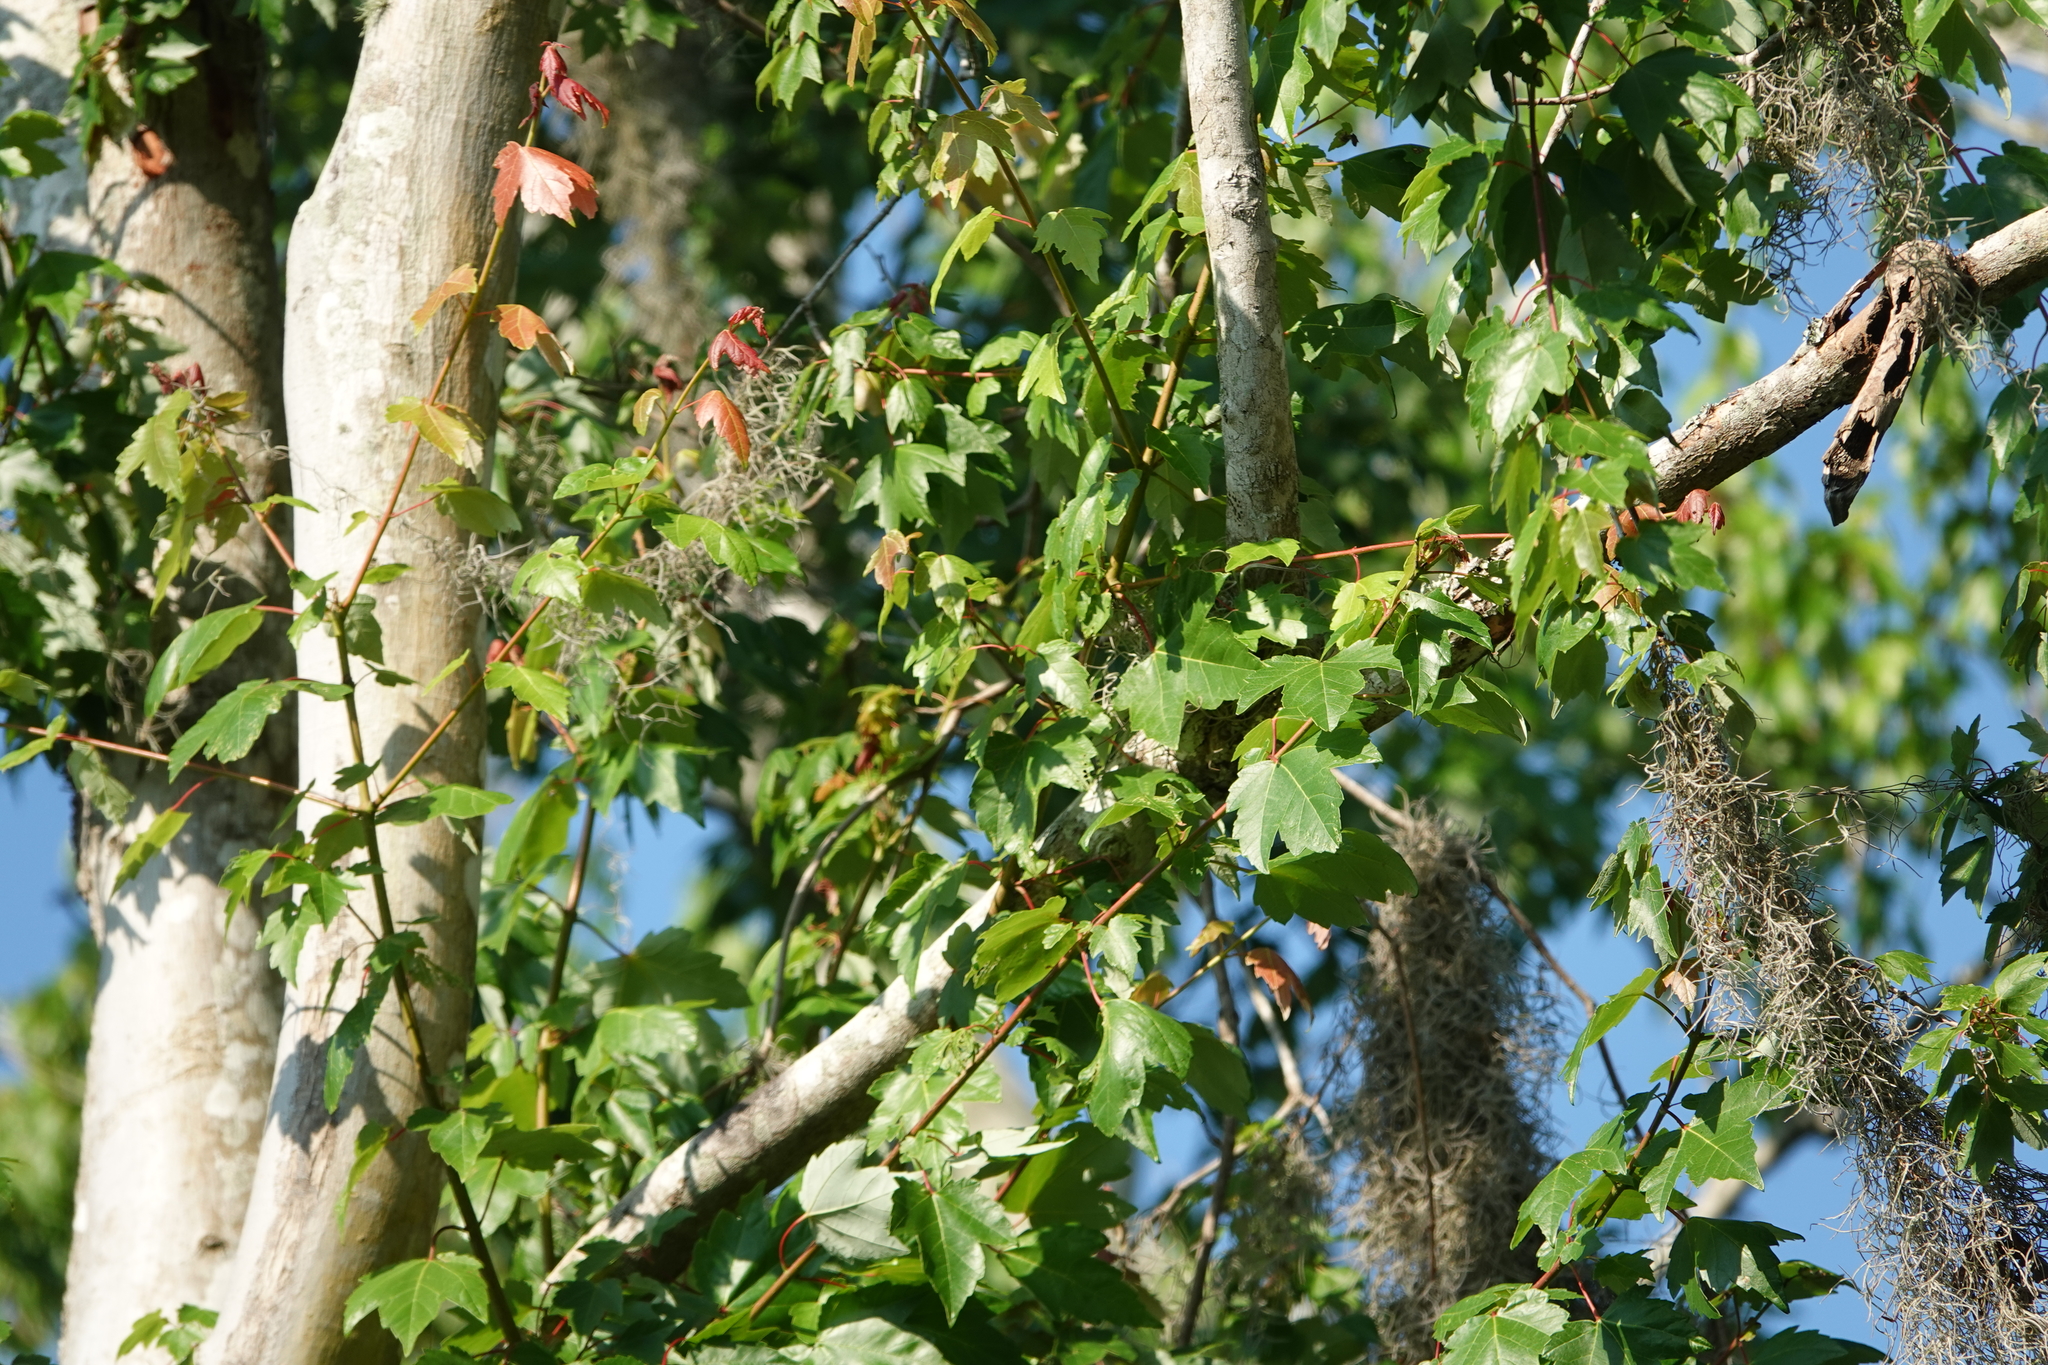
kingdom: Plantae
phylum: Tracheophyta
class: Magnoliopsida
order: Sapindales
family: Sapindaceae
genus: Acer
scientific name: Acer rubrum
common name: Red maple
